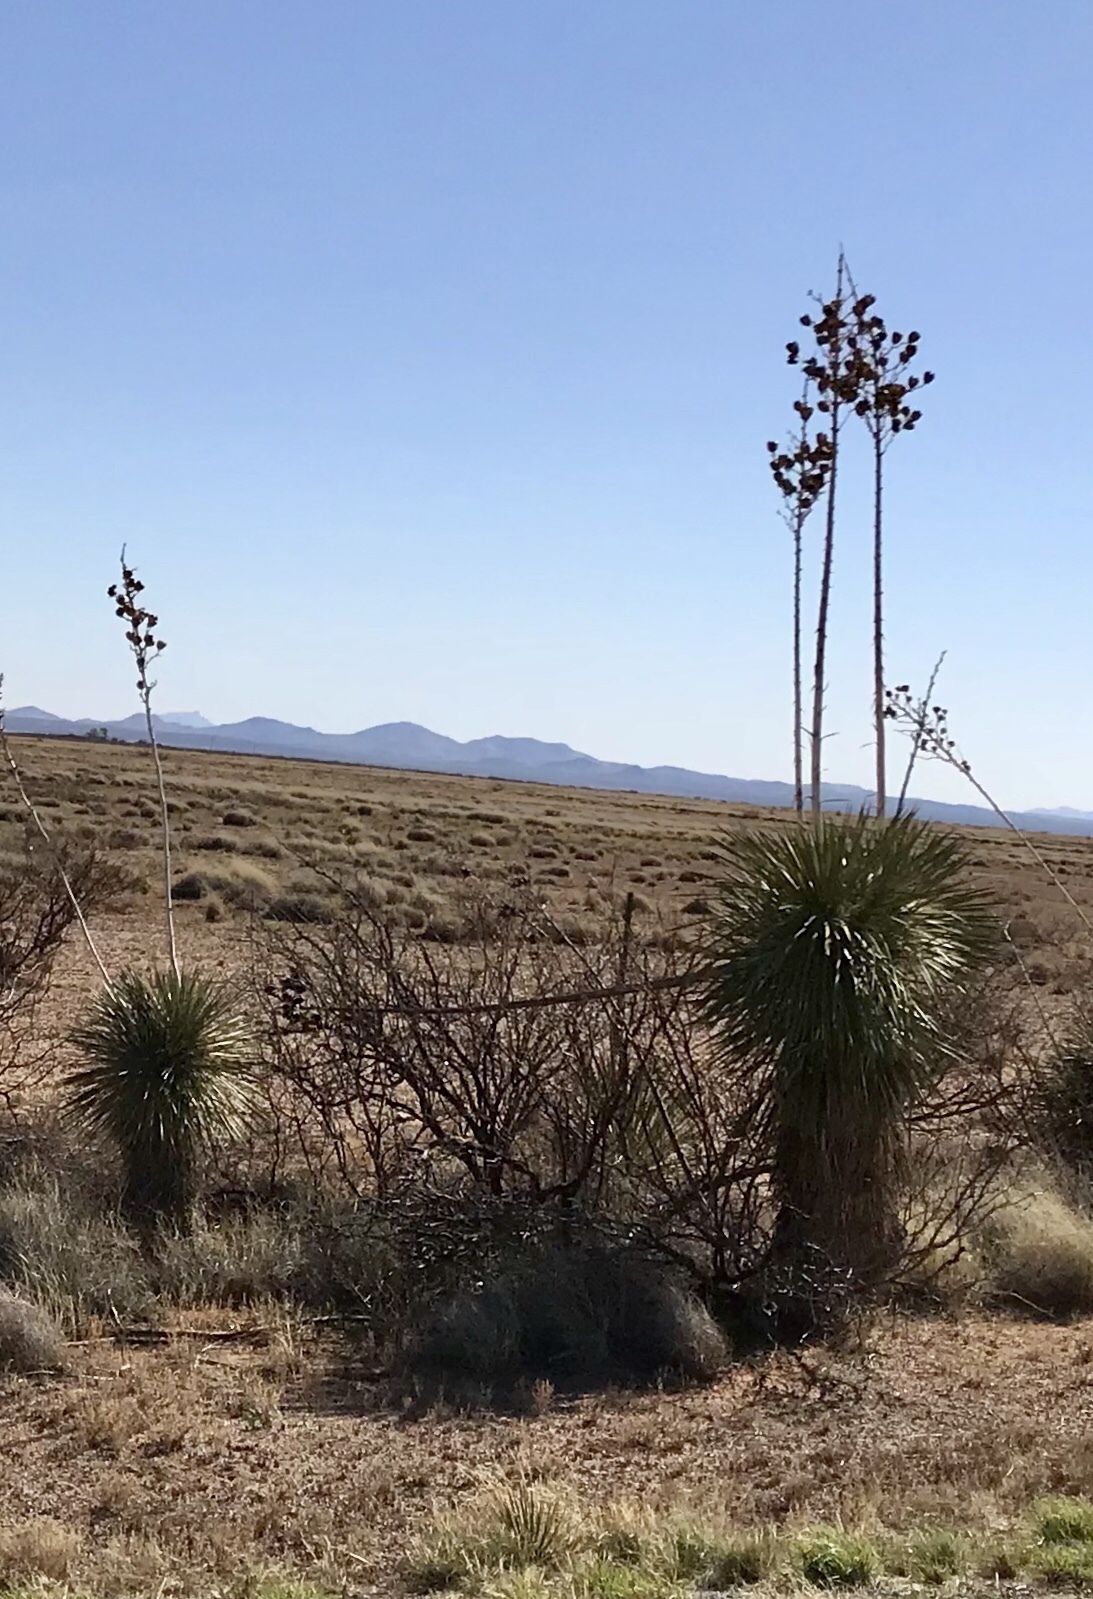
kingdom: Plantae
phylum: Tracheophyta
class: Liliopsida
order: Asparagales
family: Asparagaceae
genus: Yucca
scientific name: Yucca elata
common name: Palmella
